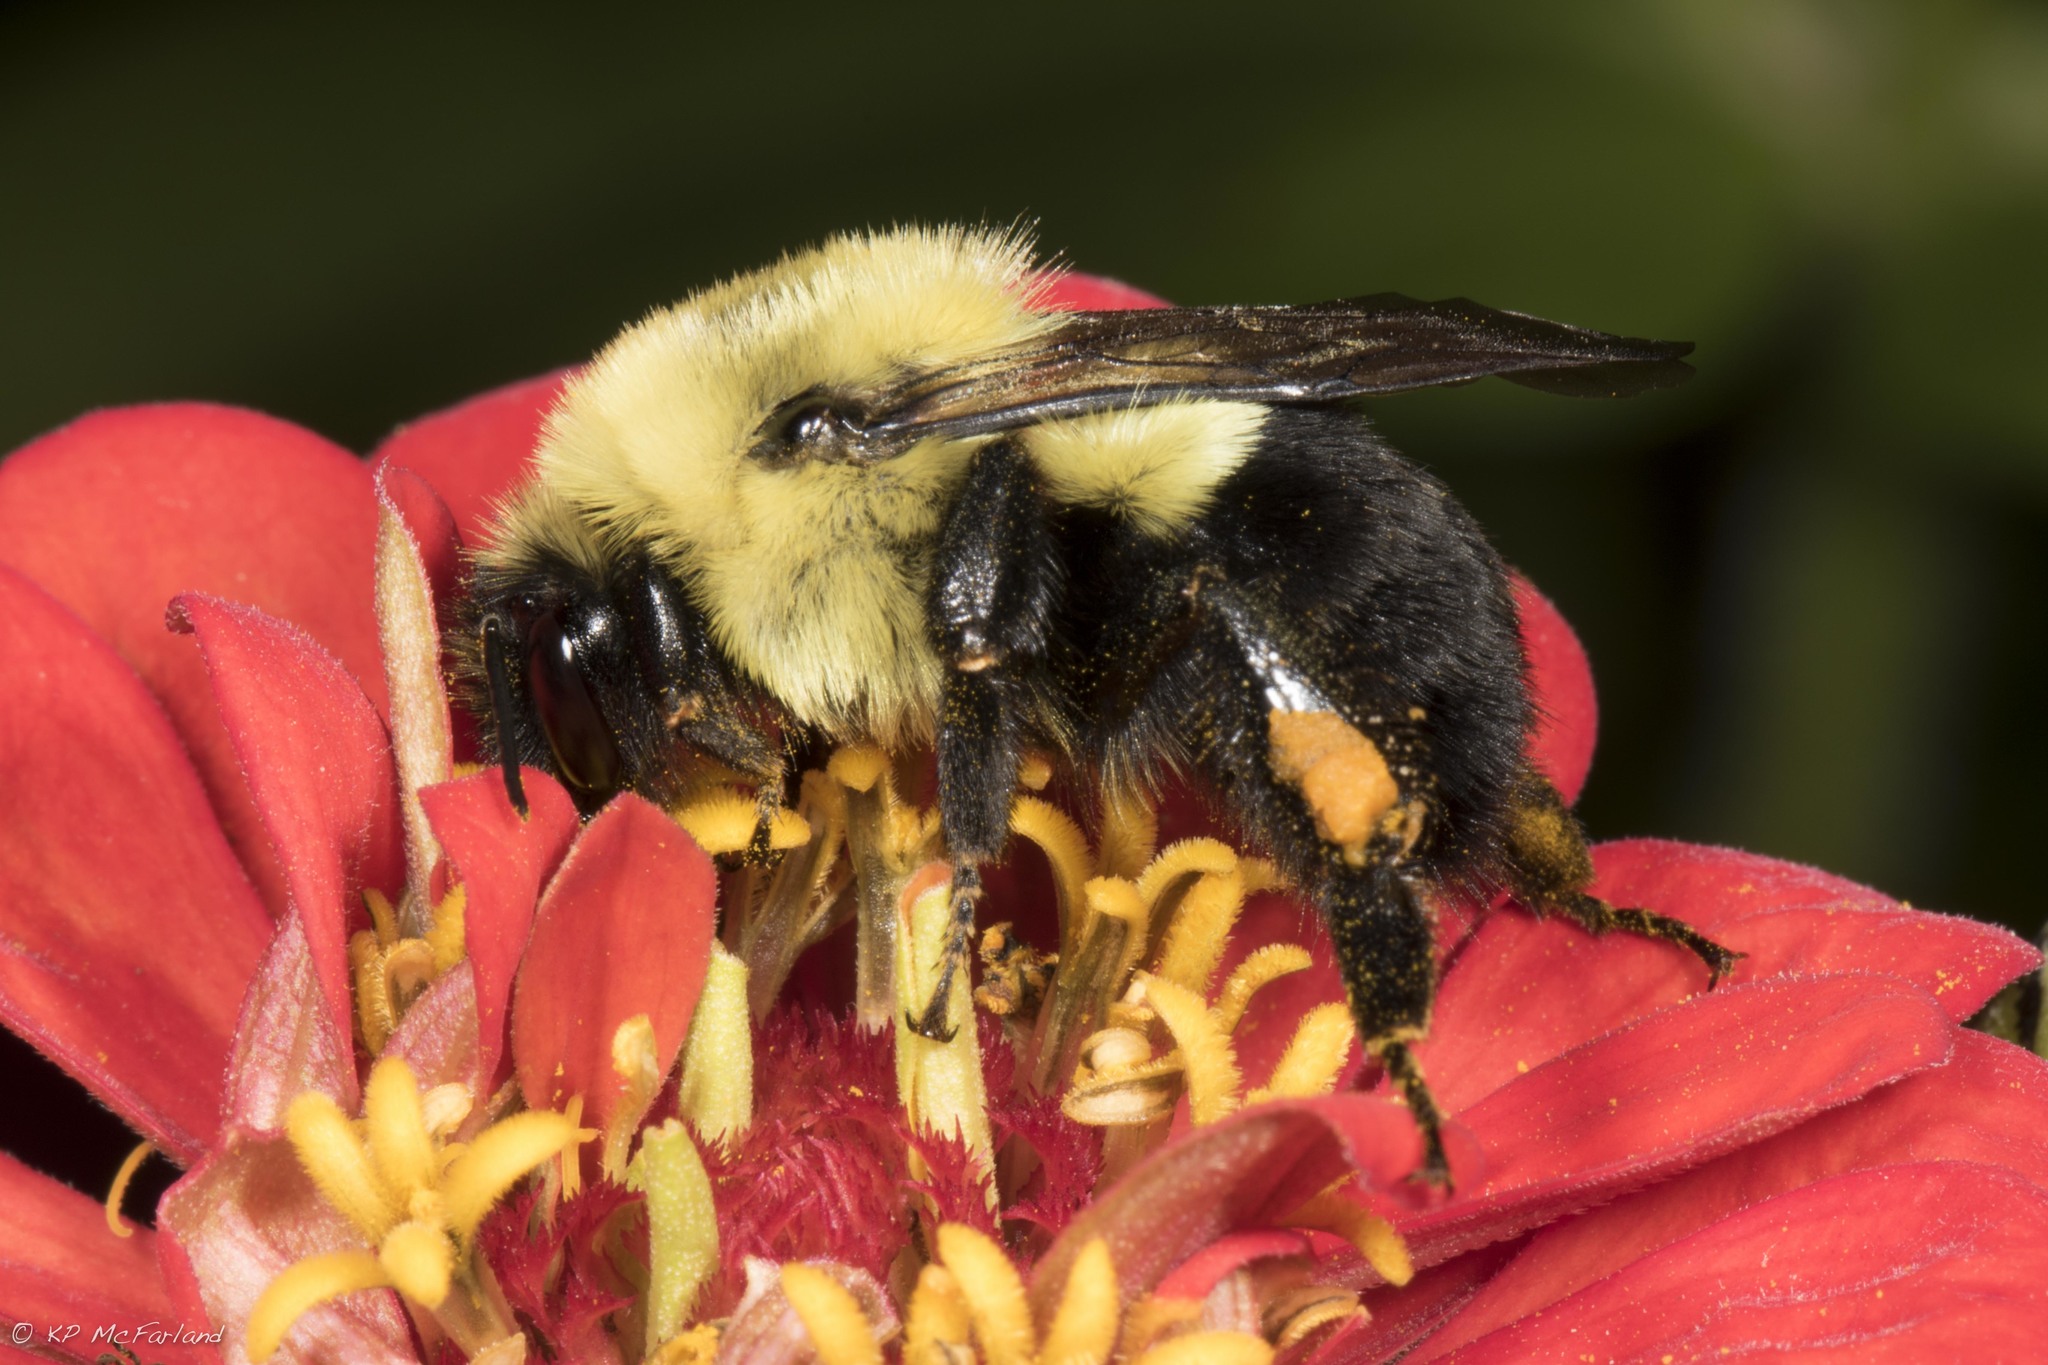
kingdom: Animalia
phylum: Arthropoda
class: Insecta
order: Hymenoptera
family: Apidae
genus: Bombus
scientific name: Bombus impatiens
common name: Common eastern bumble bee
